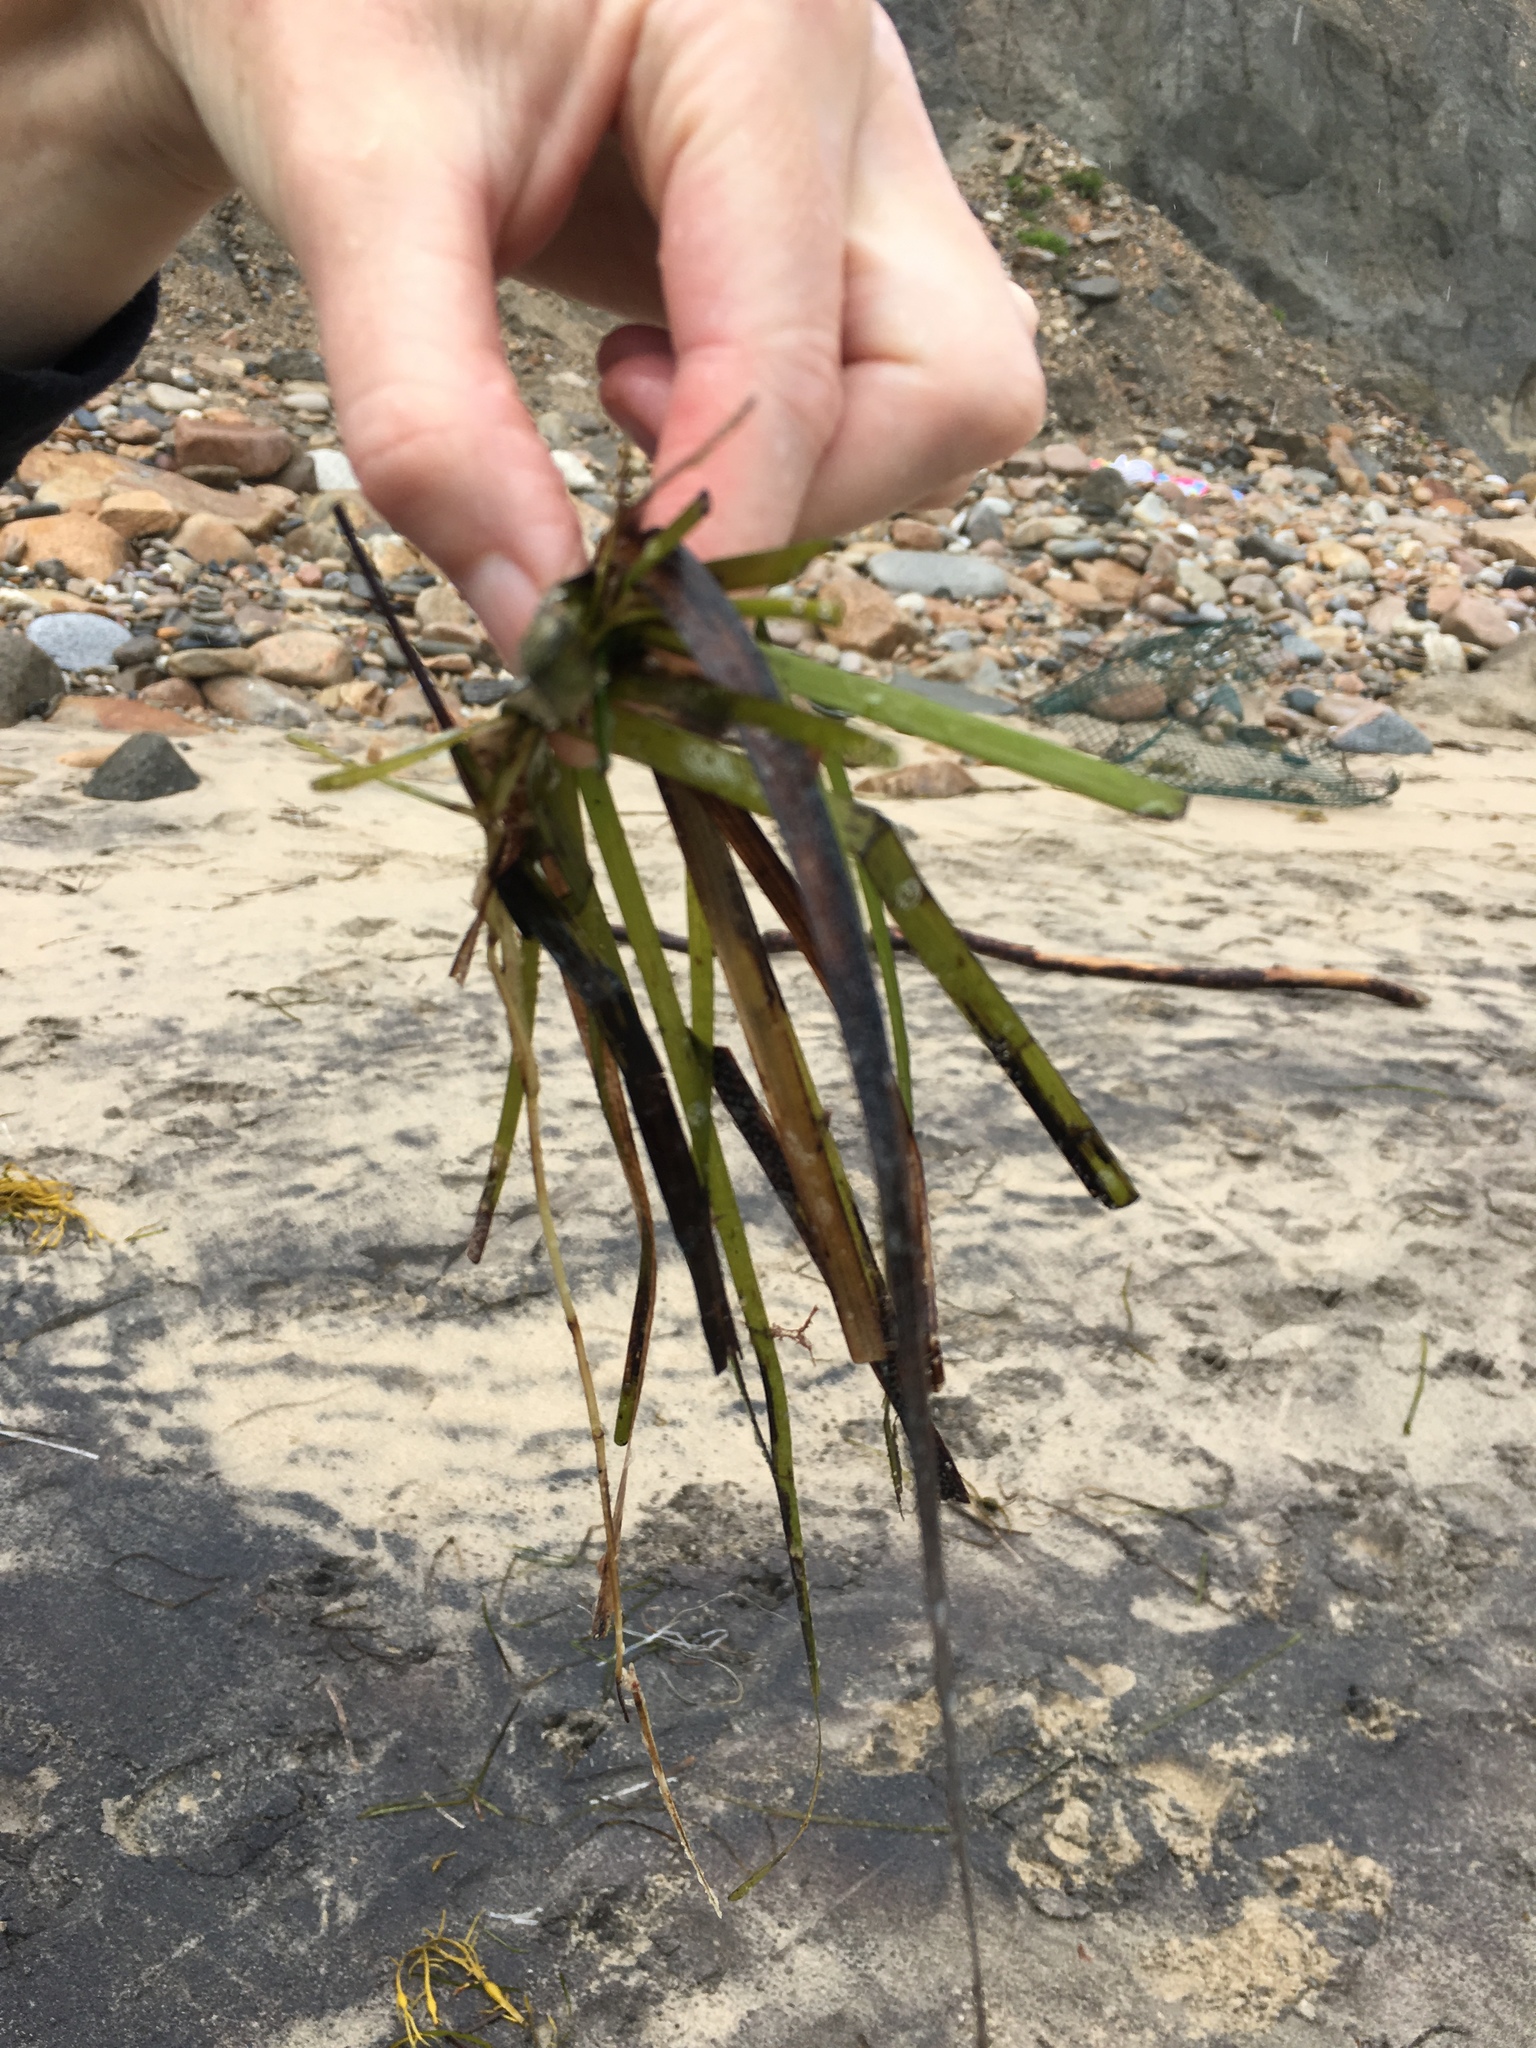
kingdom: Plantae
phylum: Tracheophyta
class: Liliopsida
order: Alismatales
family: Zosteraceae
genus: Zostera
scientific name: Zostera marina
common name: Eelgrass
